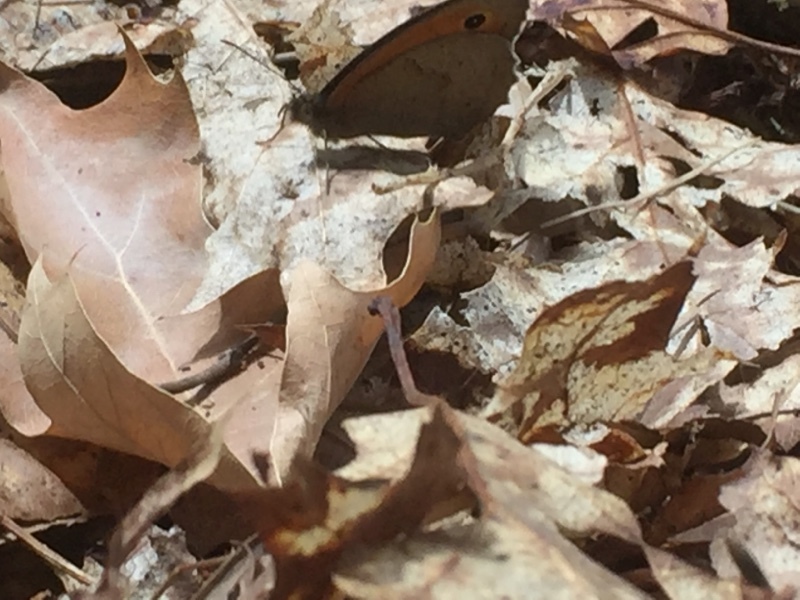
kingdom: Animalia
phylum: Arthropoda
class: Insecta
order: Lepidoptera
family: Nymphalidae
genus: Maniola
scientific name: Maniola jurtina
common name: Meadow brown
